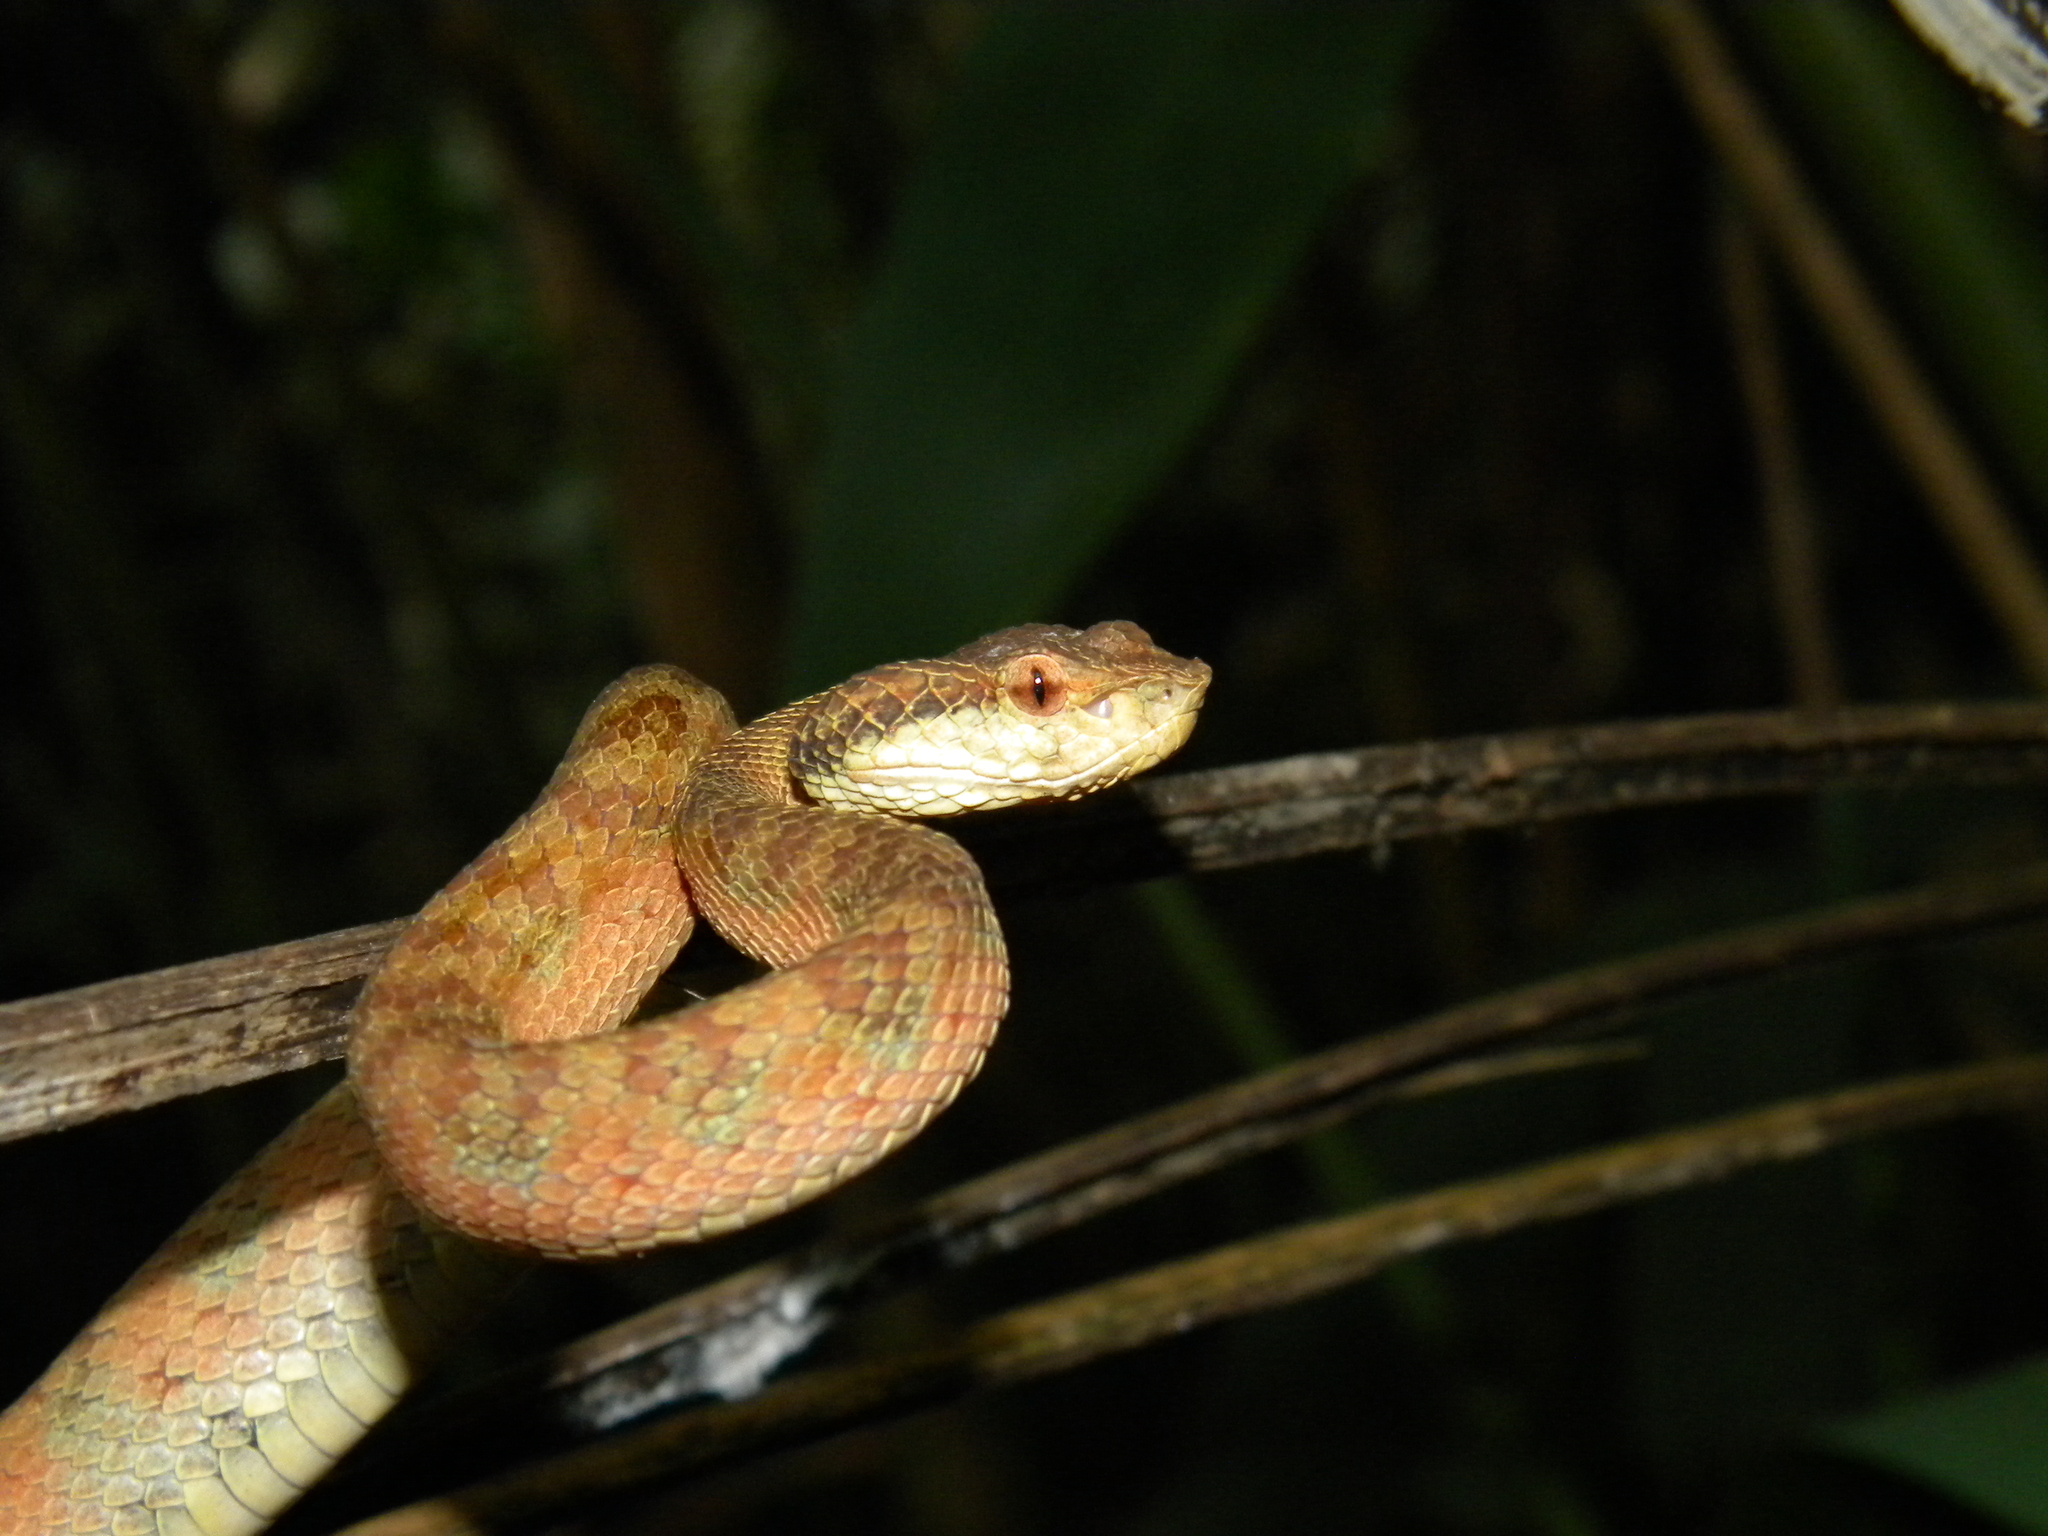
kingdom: Animalia
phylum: Chordata
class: Squamata
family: Viperidae
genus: Craspedocephalus
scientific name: Craspedocephalus travancoricus
